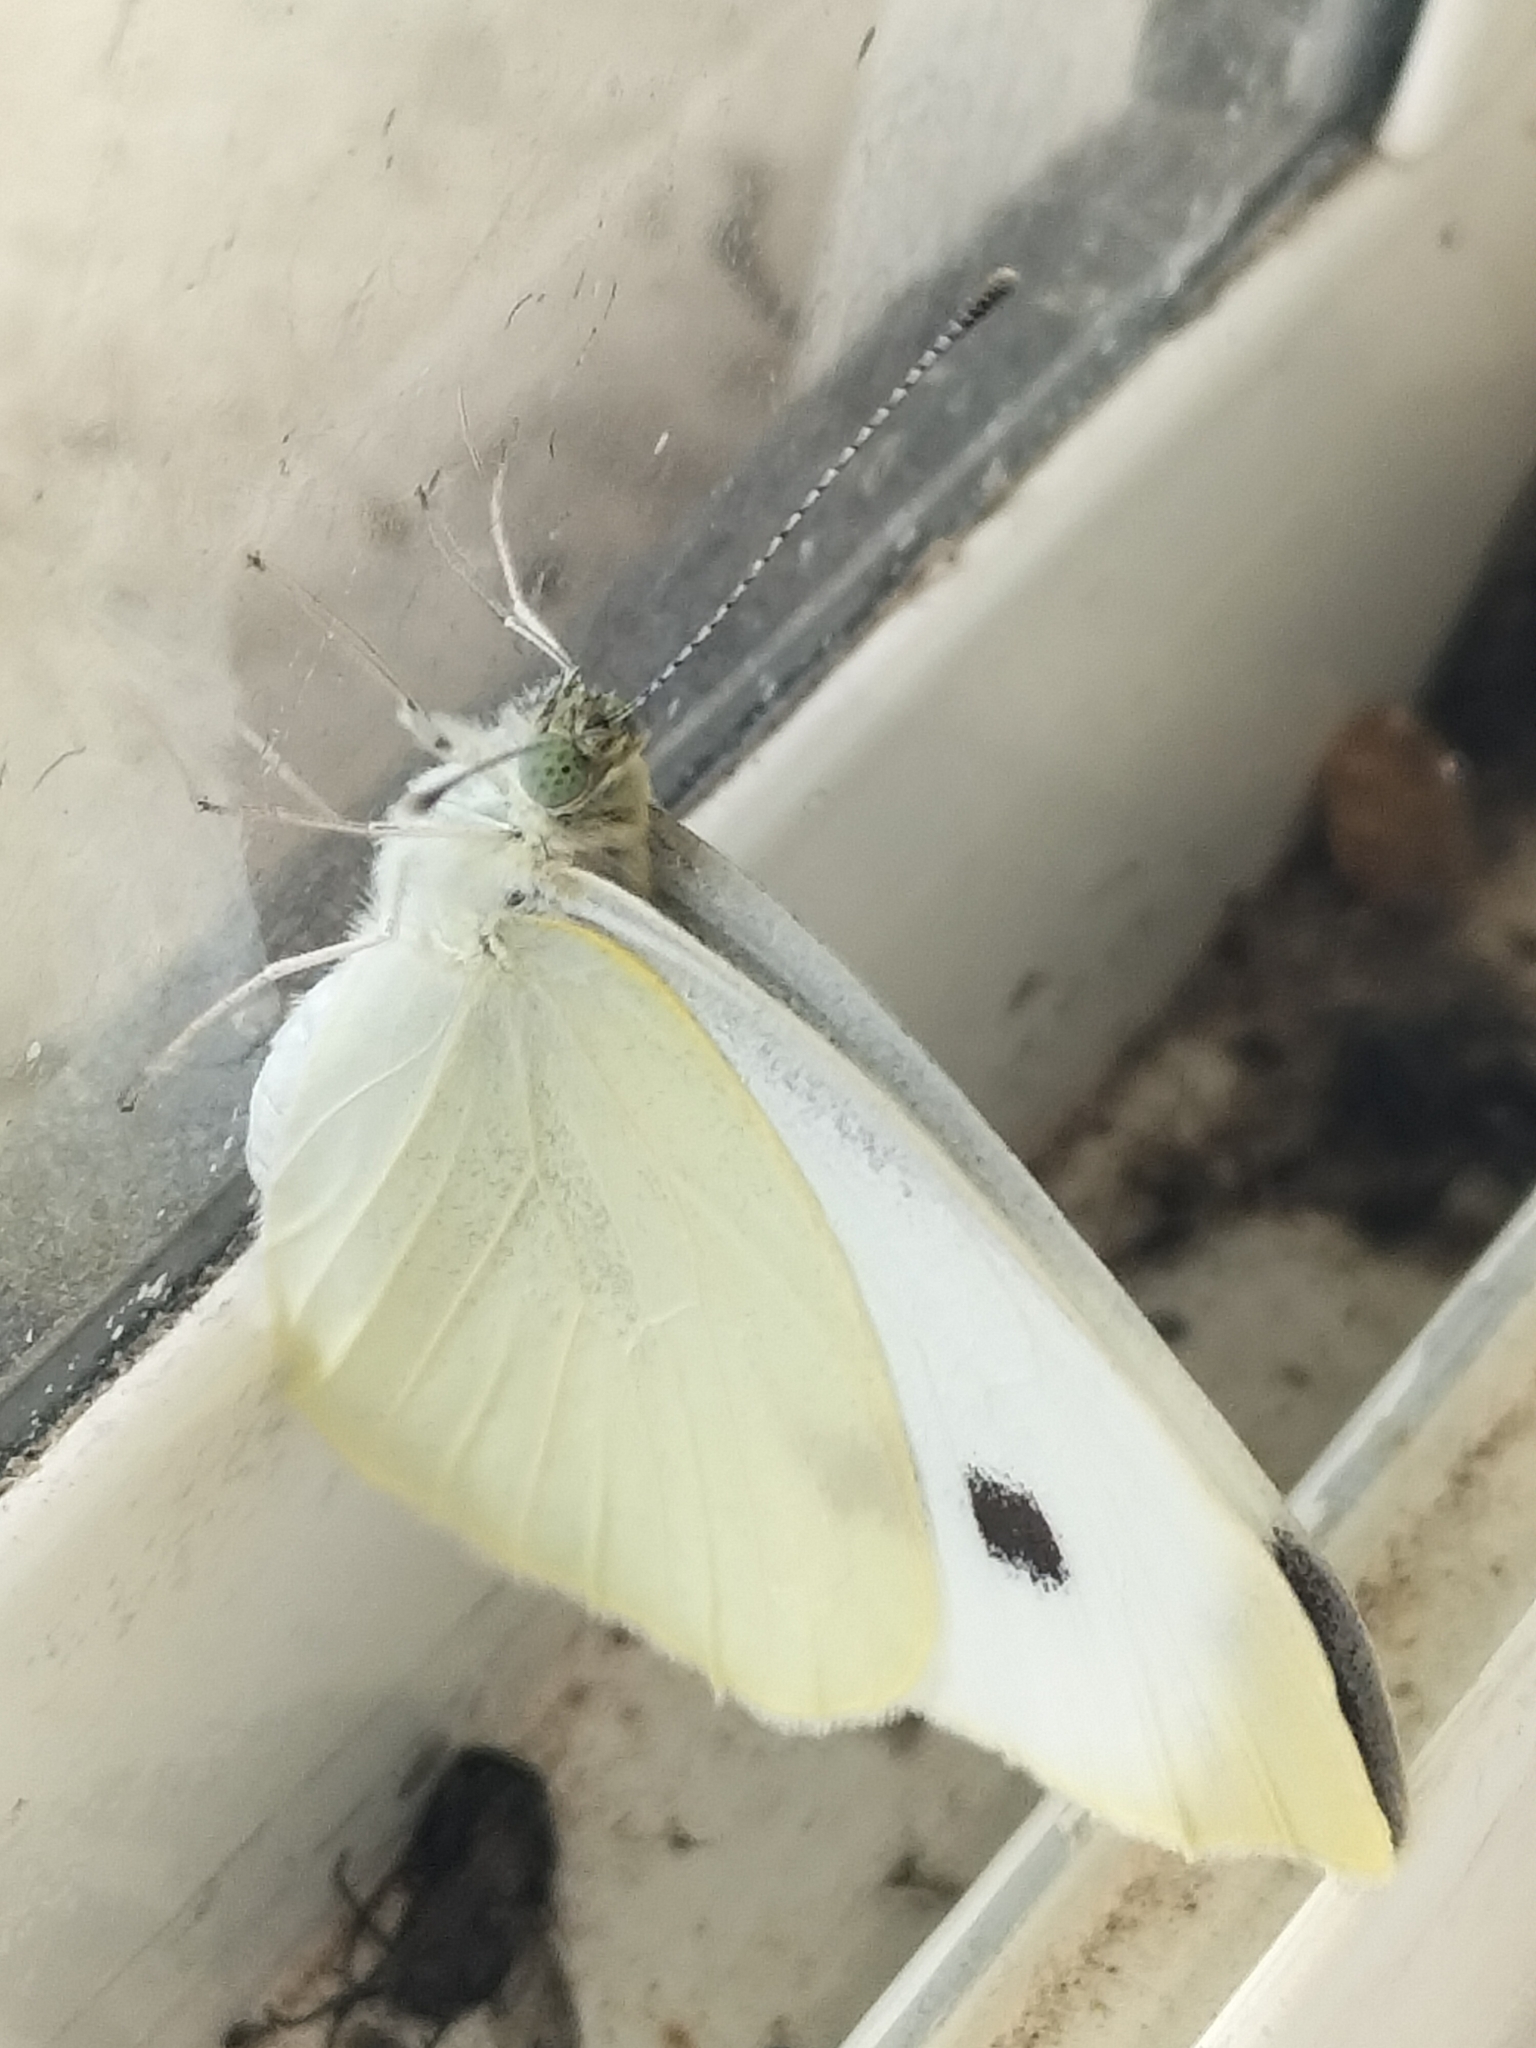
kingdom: Animalia
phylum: Arthropoda
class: Insecta
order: Lepidoptera
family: Pieridae
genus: Pieris
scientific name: Pieris rapae
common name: Small white
